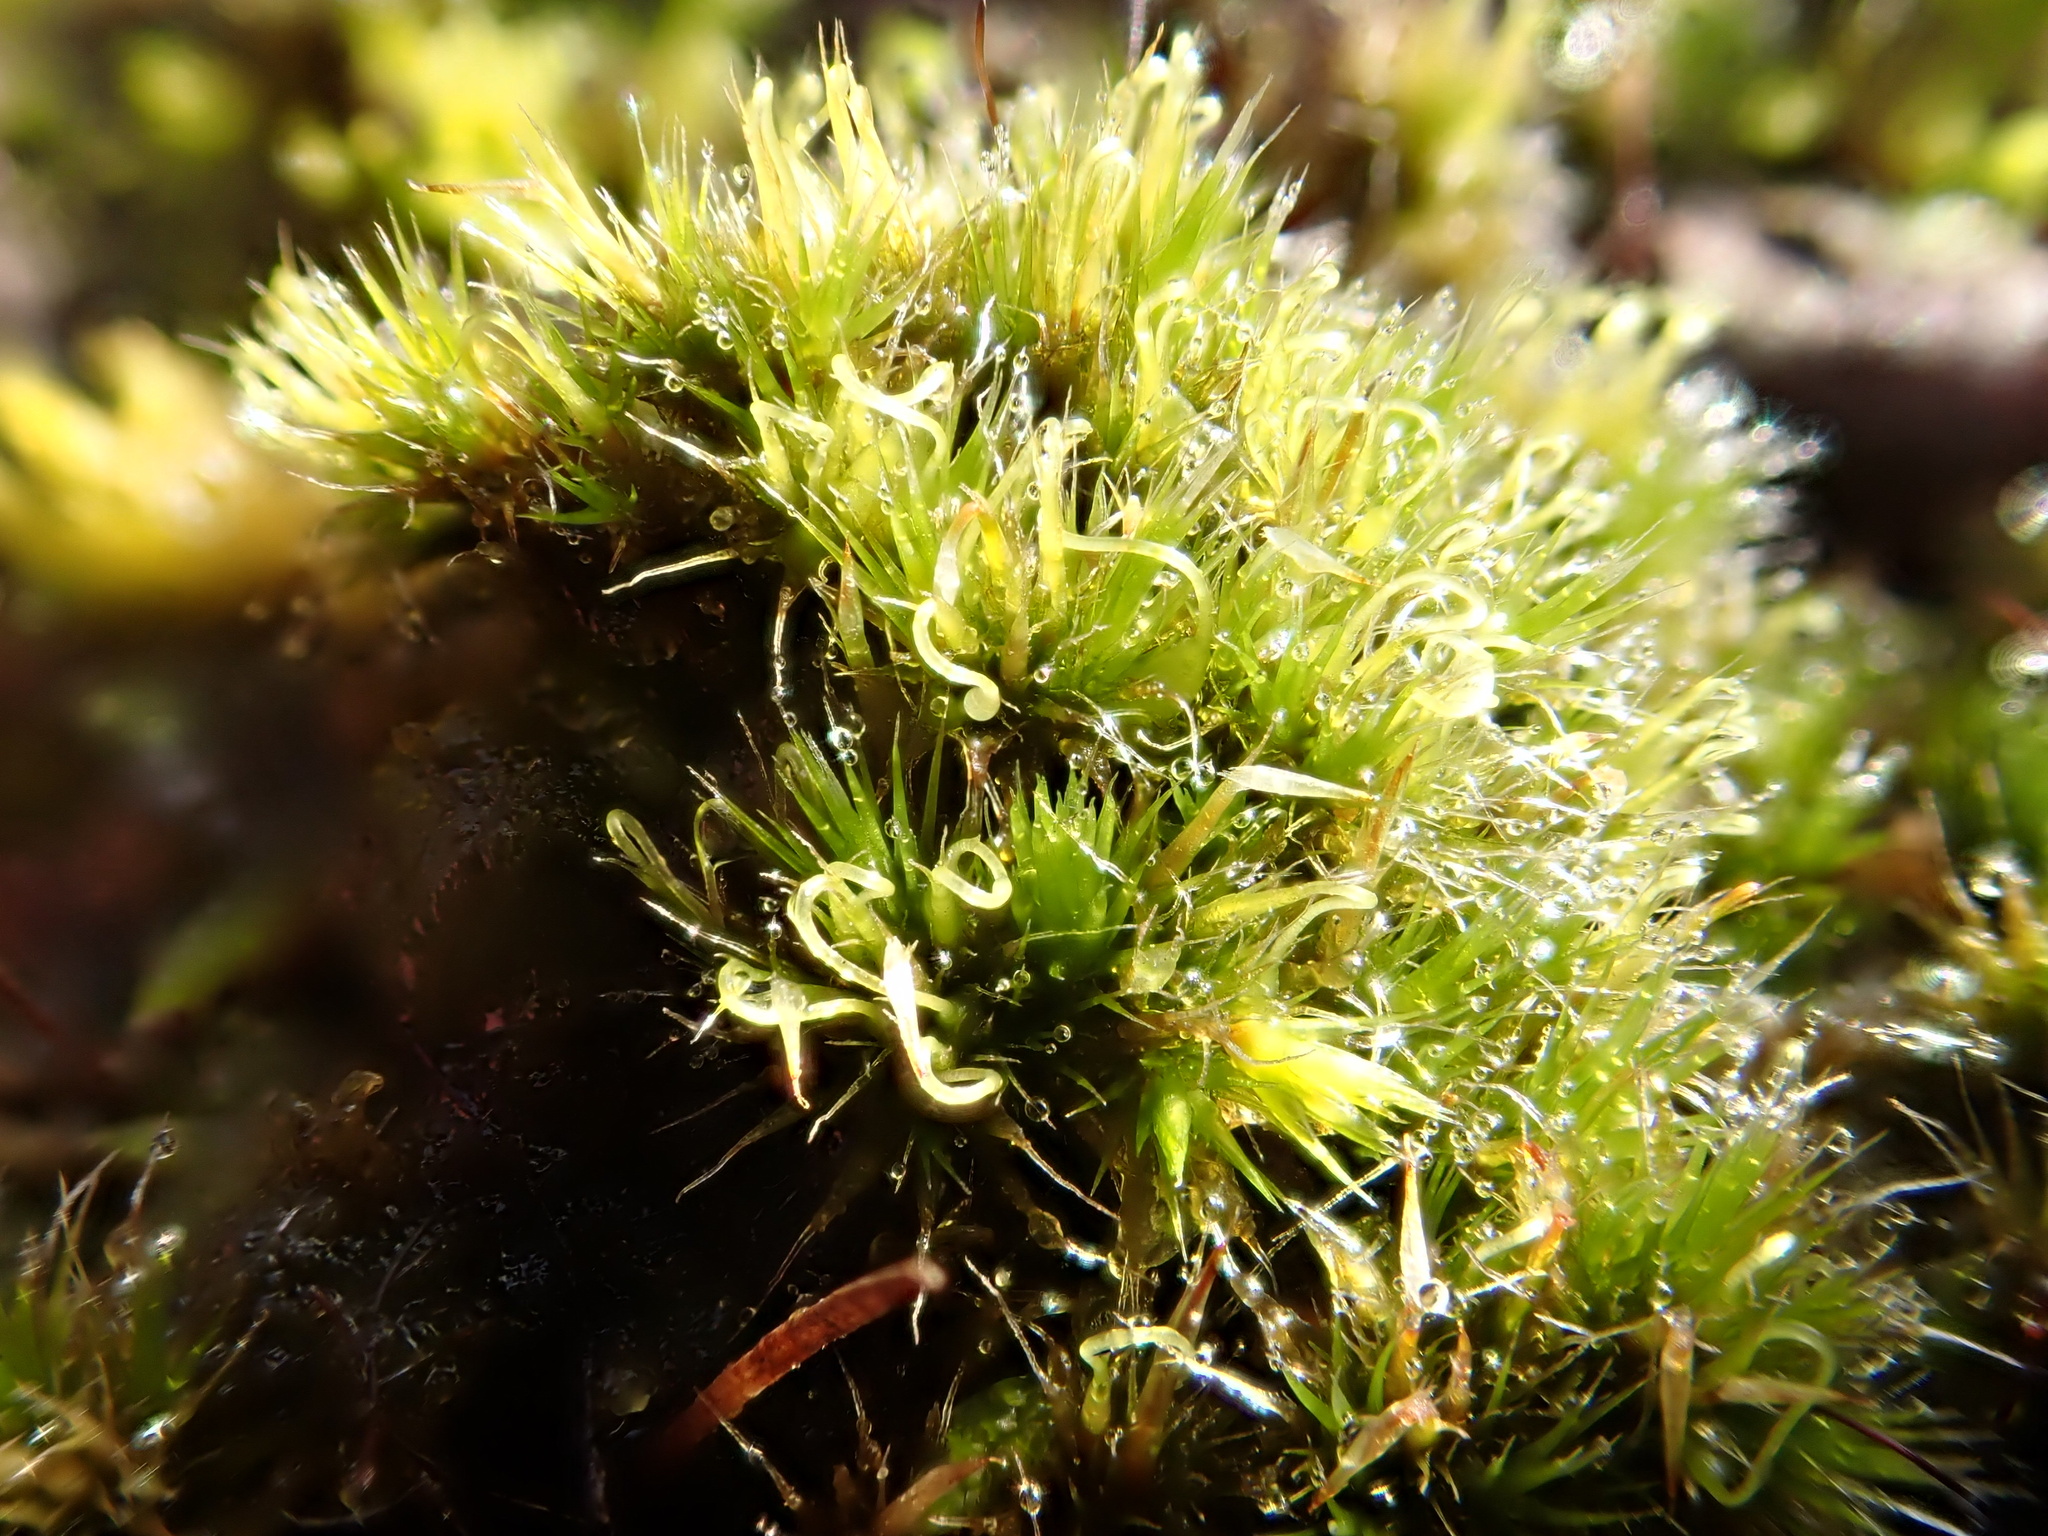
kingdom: Plantae
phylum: Bryophyta
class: Bryopsida
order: Dicranales
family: Leucobryaceae
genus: Campylopus
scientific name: Campylopus introflexus
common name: Heath star moss
